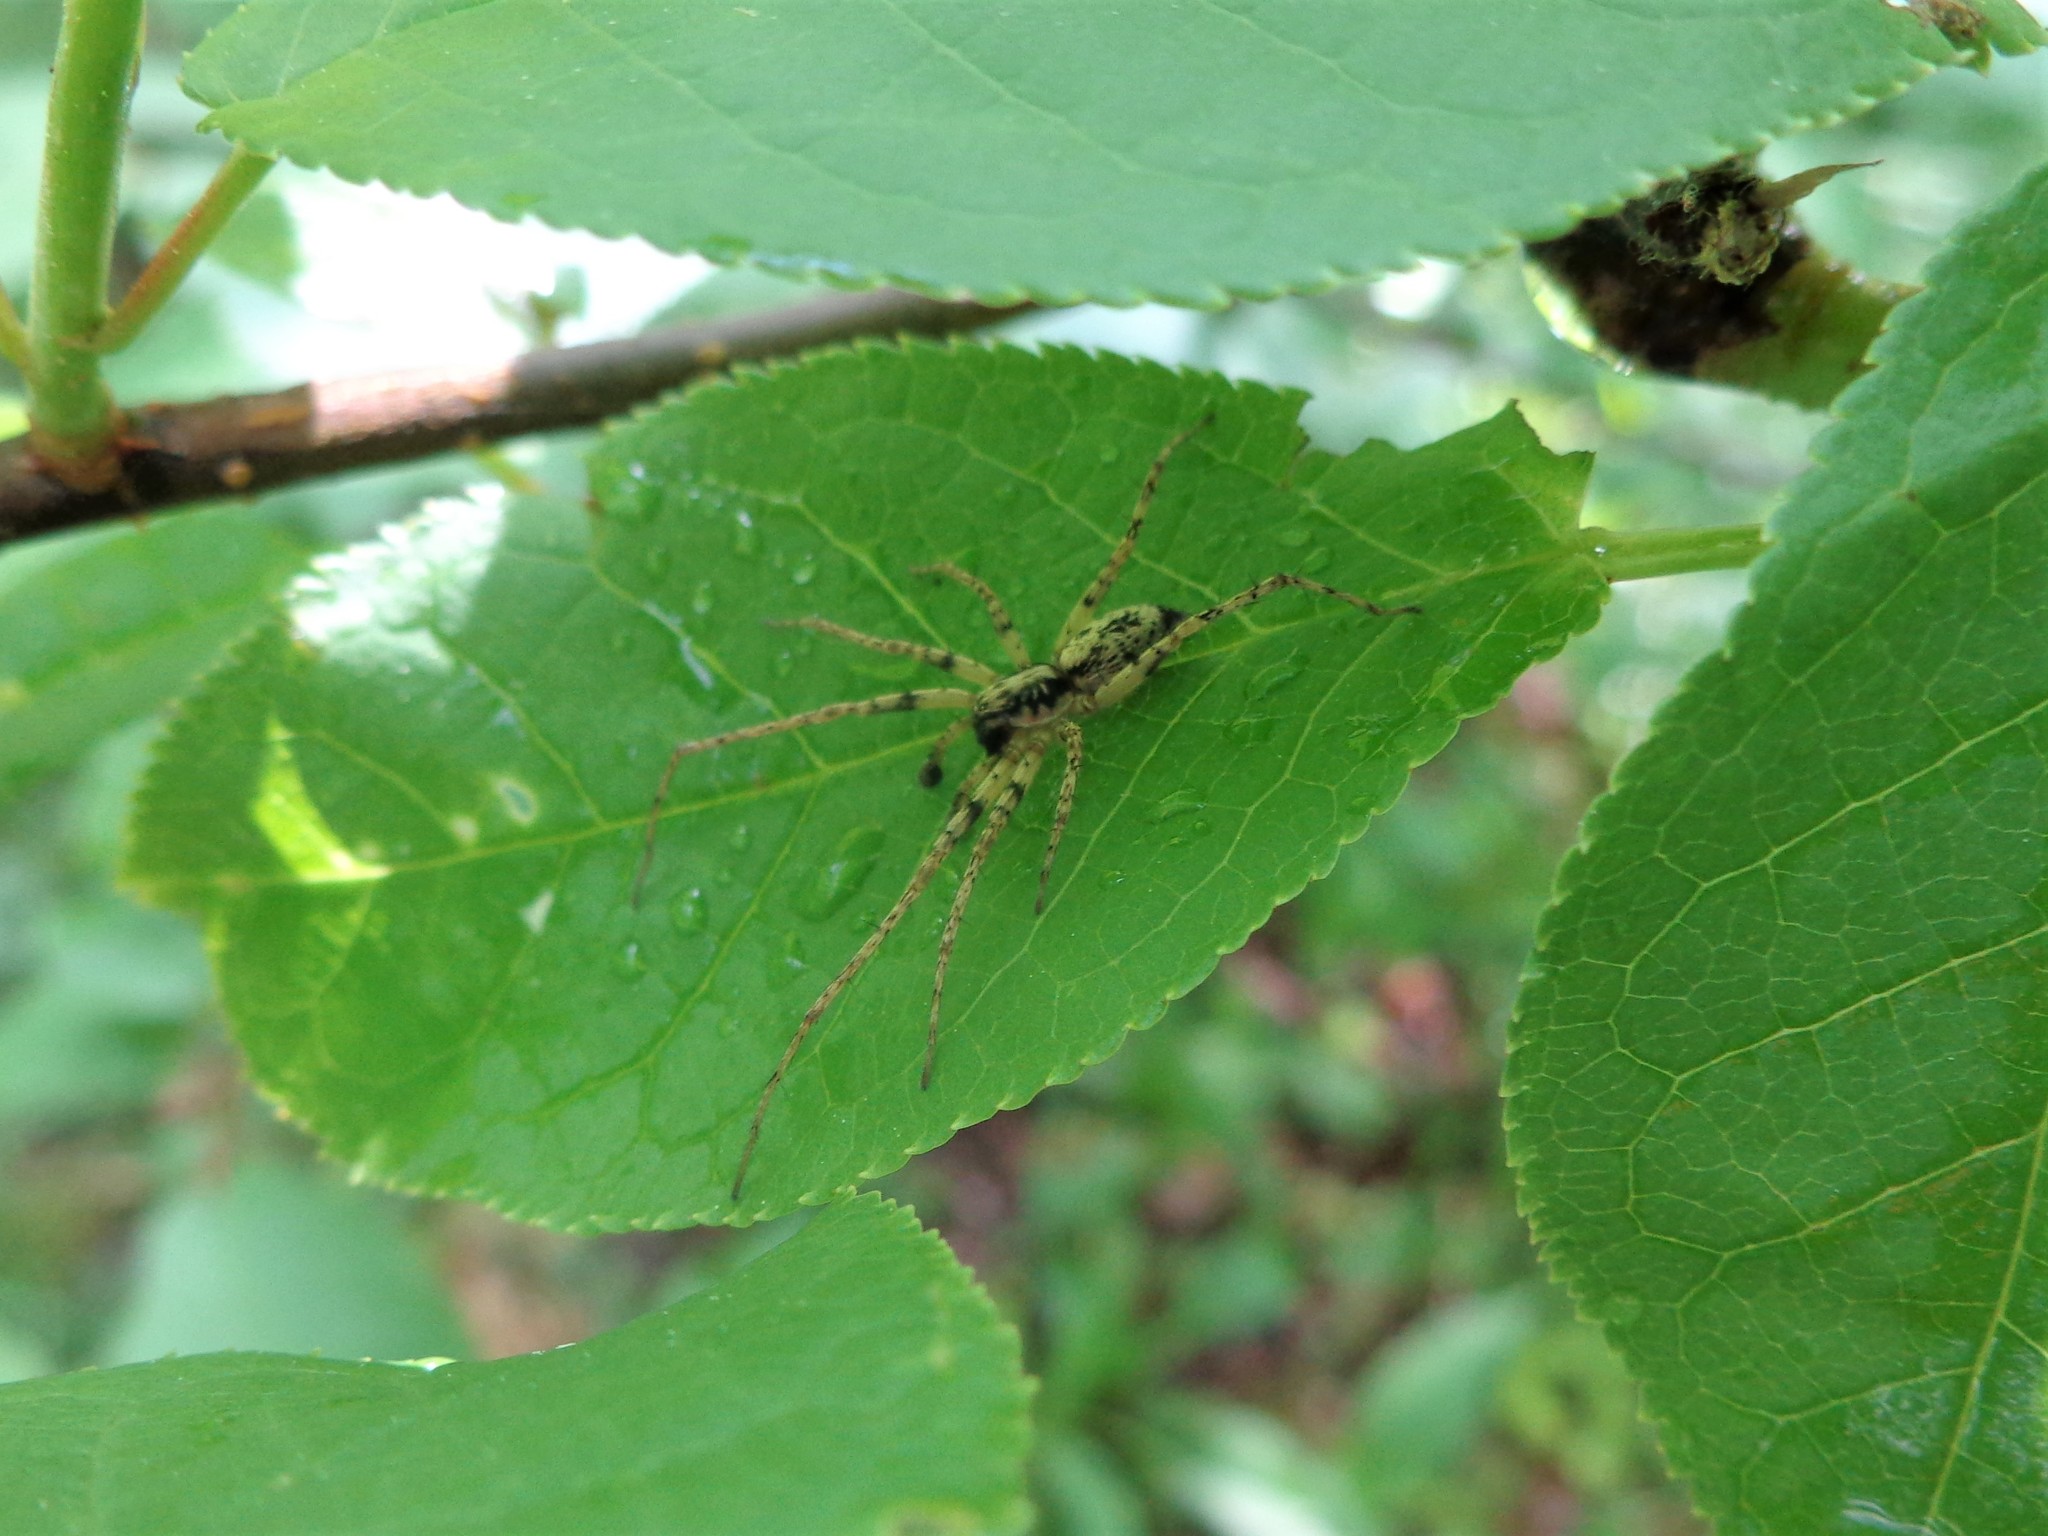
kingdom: Animalia
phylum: Arthropoda
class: Arachnida
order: Araneae
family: Anyphaenidae
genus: Anyphaena
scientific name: Anyphaena accentuata
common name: Buzzing spider
